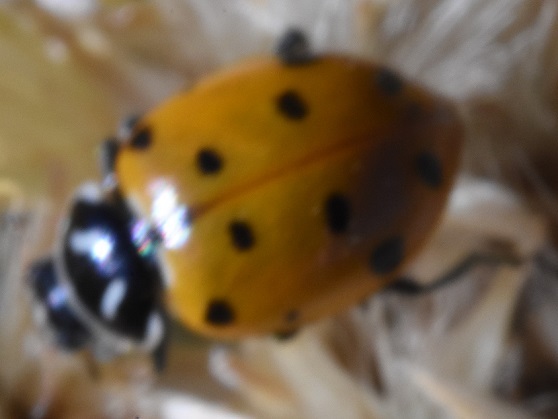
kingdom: Animalia
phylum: Arthropoda
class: Insecta
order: Coleoptera
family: Coccinellidae
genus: Hippodamia
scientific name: Hippodamia convergens
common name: Convergent lady beetle
